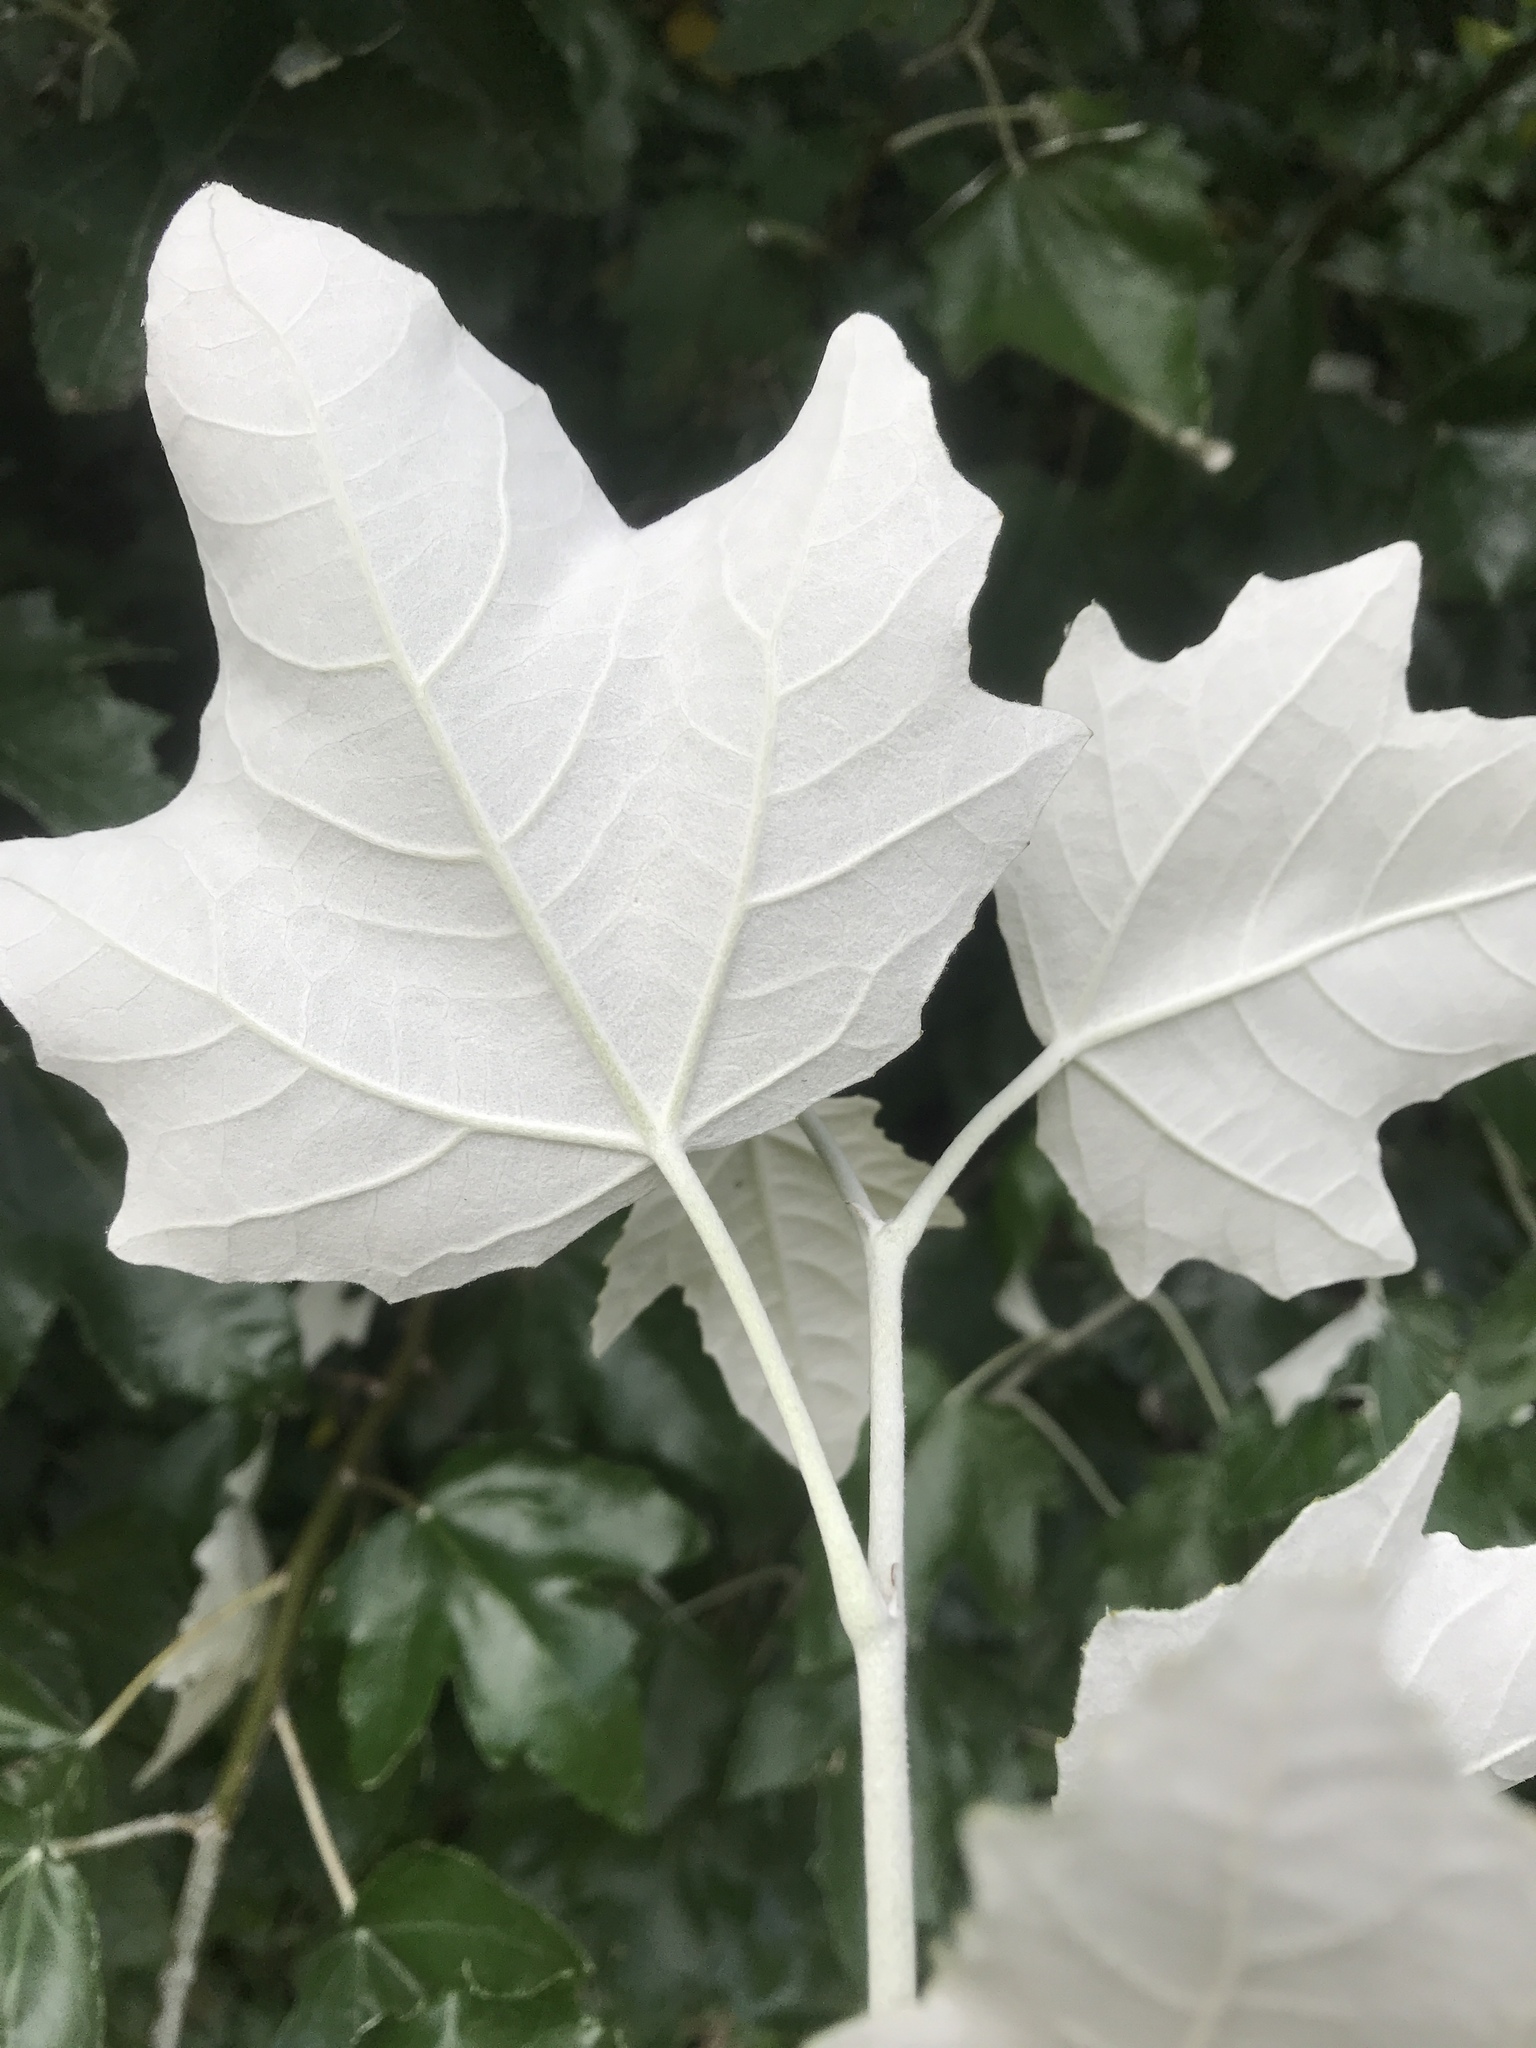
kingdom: Plantae
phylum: Tracheophyta
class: Magnoliopsida
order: Malpighiales
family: Salicaceae
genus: Populus
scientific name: Populus alba
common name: White poplar
